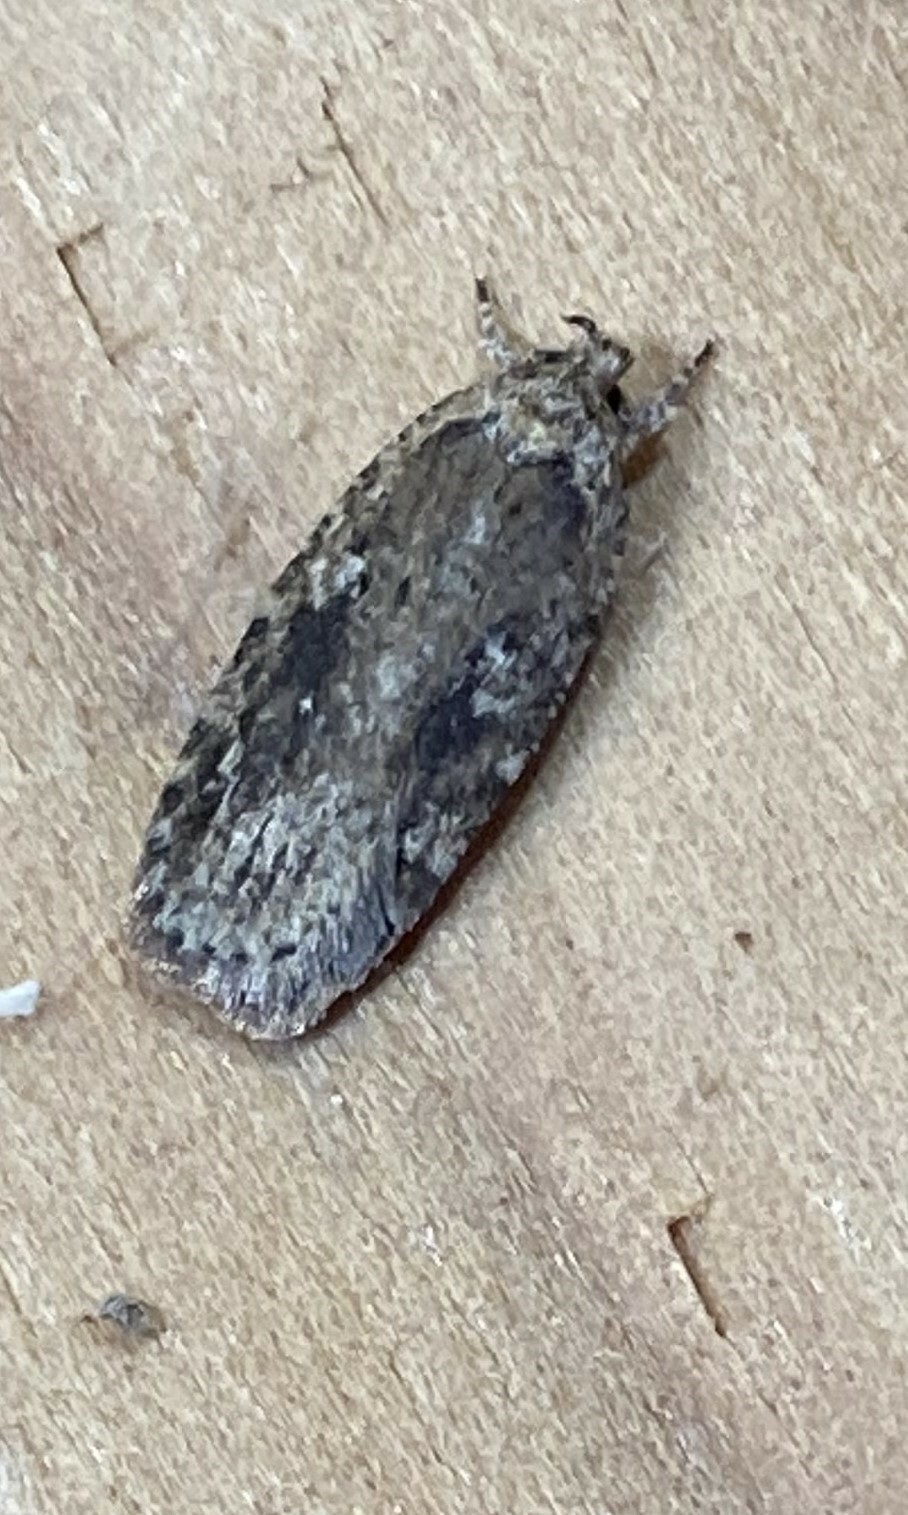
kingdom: Animalia
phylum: Arthropoda
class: Insecta
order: Lepidoptera
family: Depressariidae
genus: Agonopterix
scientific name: Agonopterix pulvipennella
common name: Goldenrod leafffolder
